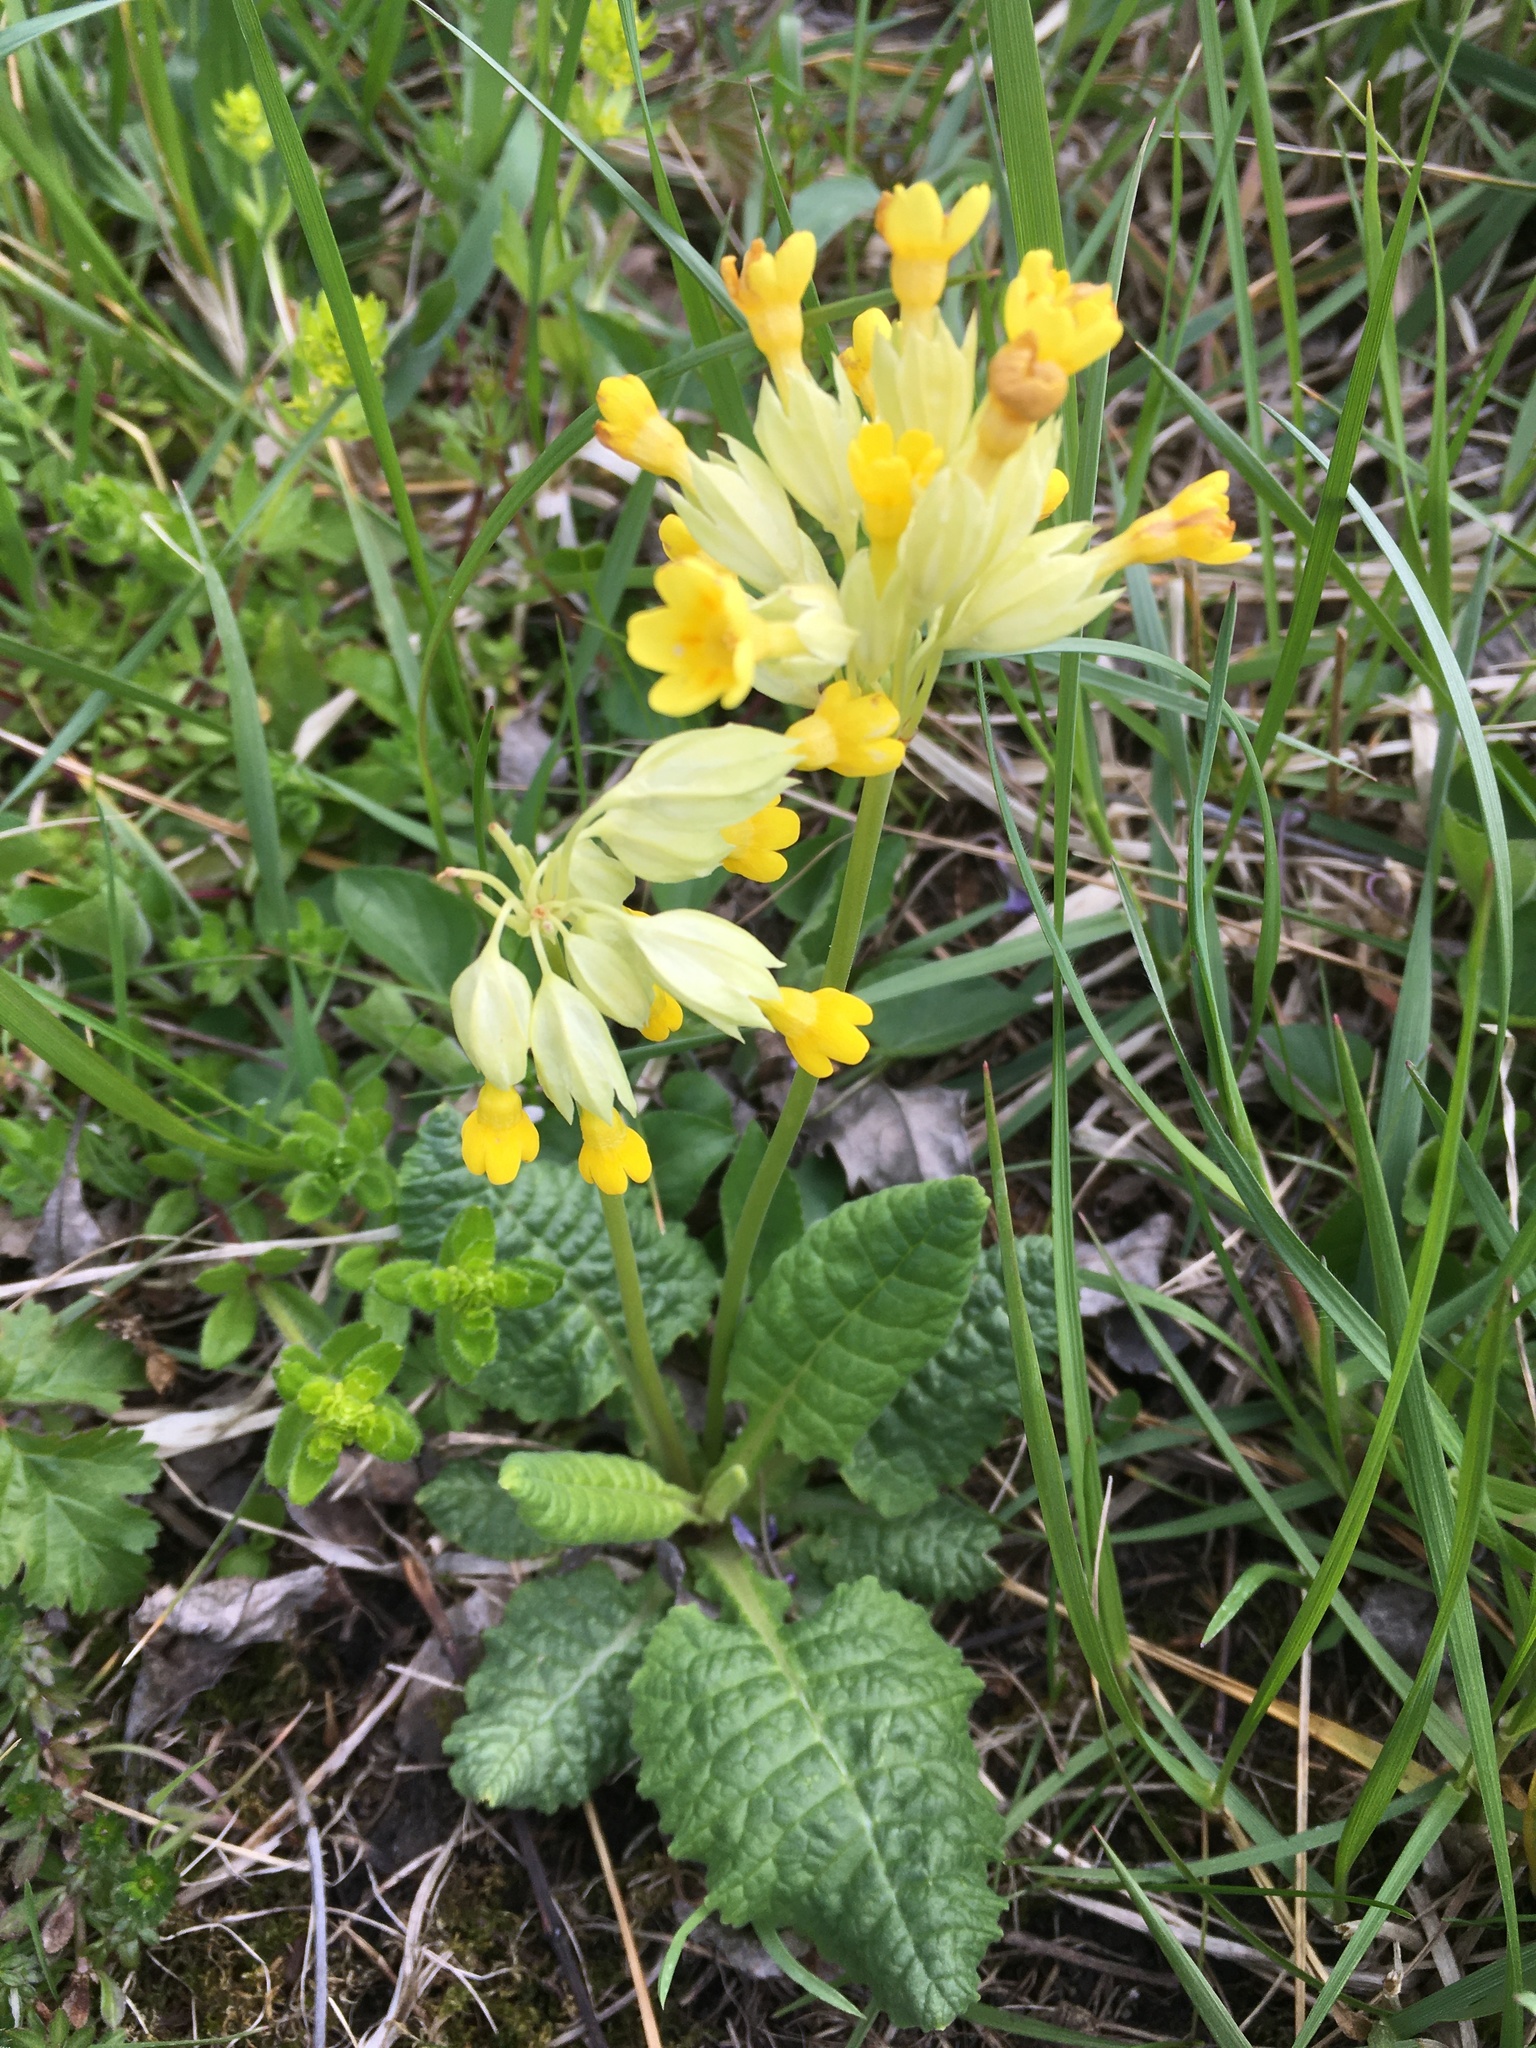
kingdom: Plantae
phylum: Tracheophyta
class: Magnoliopsida
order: Ericales
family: Primulaceae
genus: Primula
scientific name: Primula veris
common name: Cowslip
